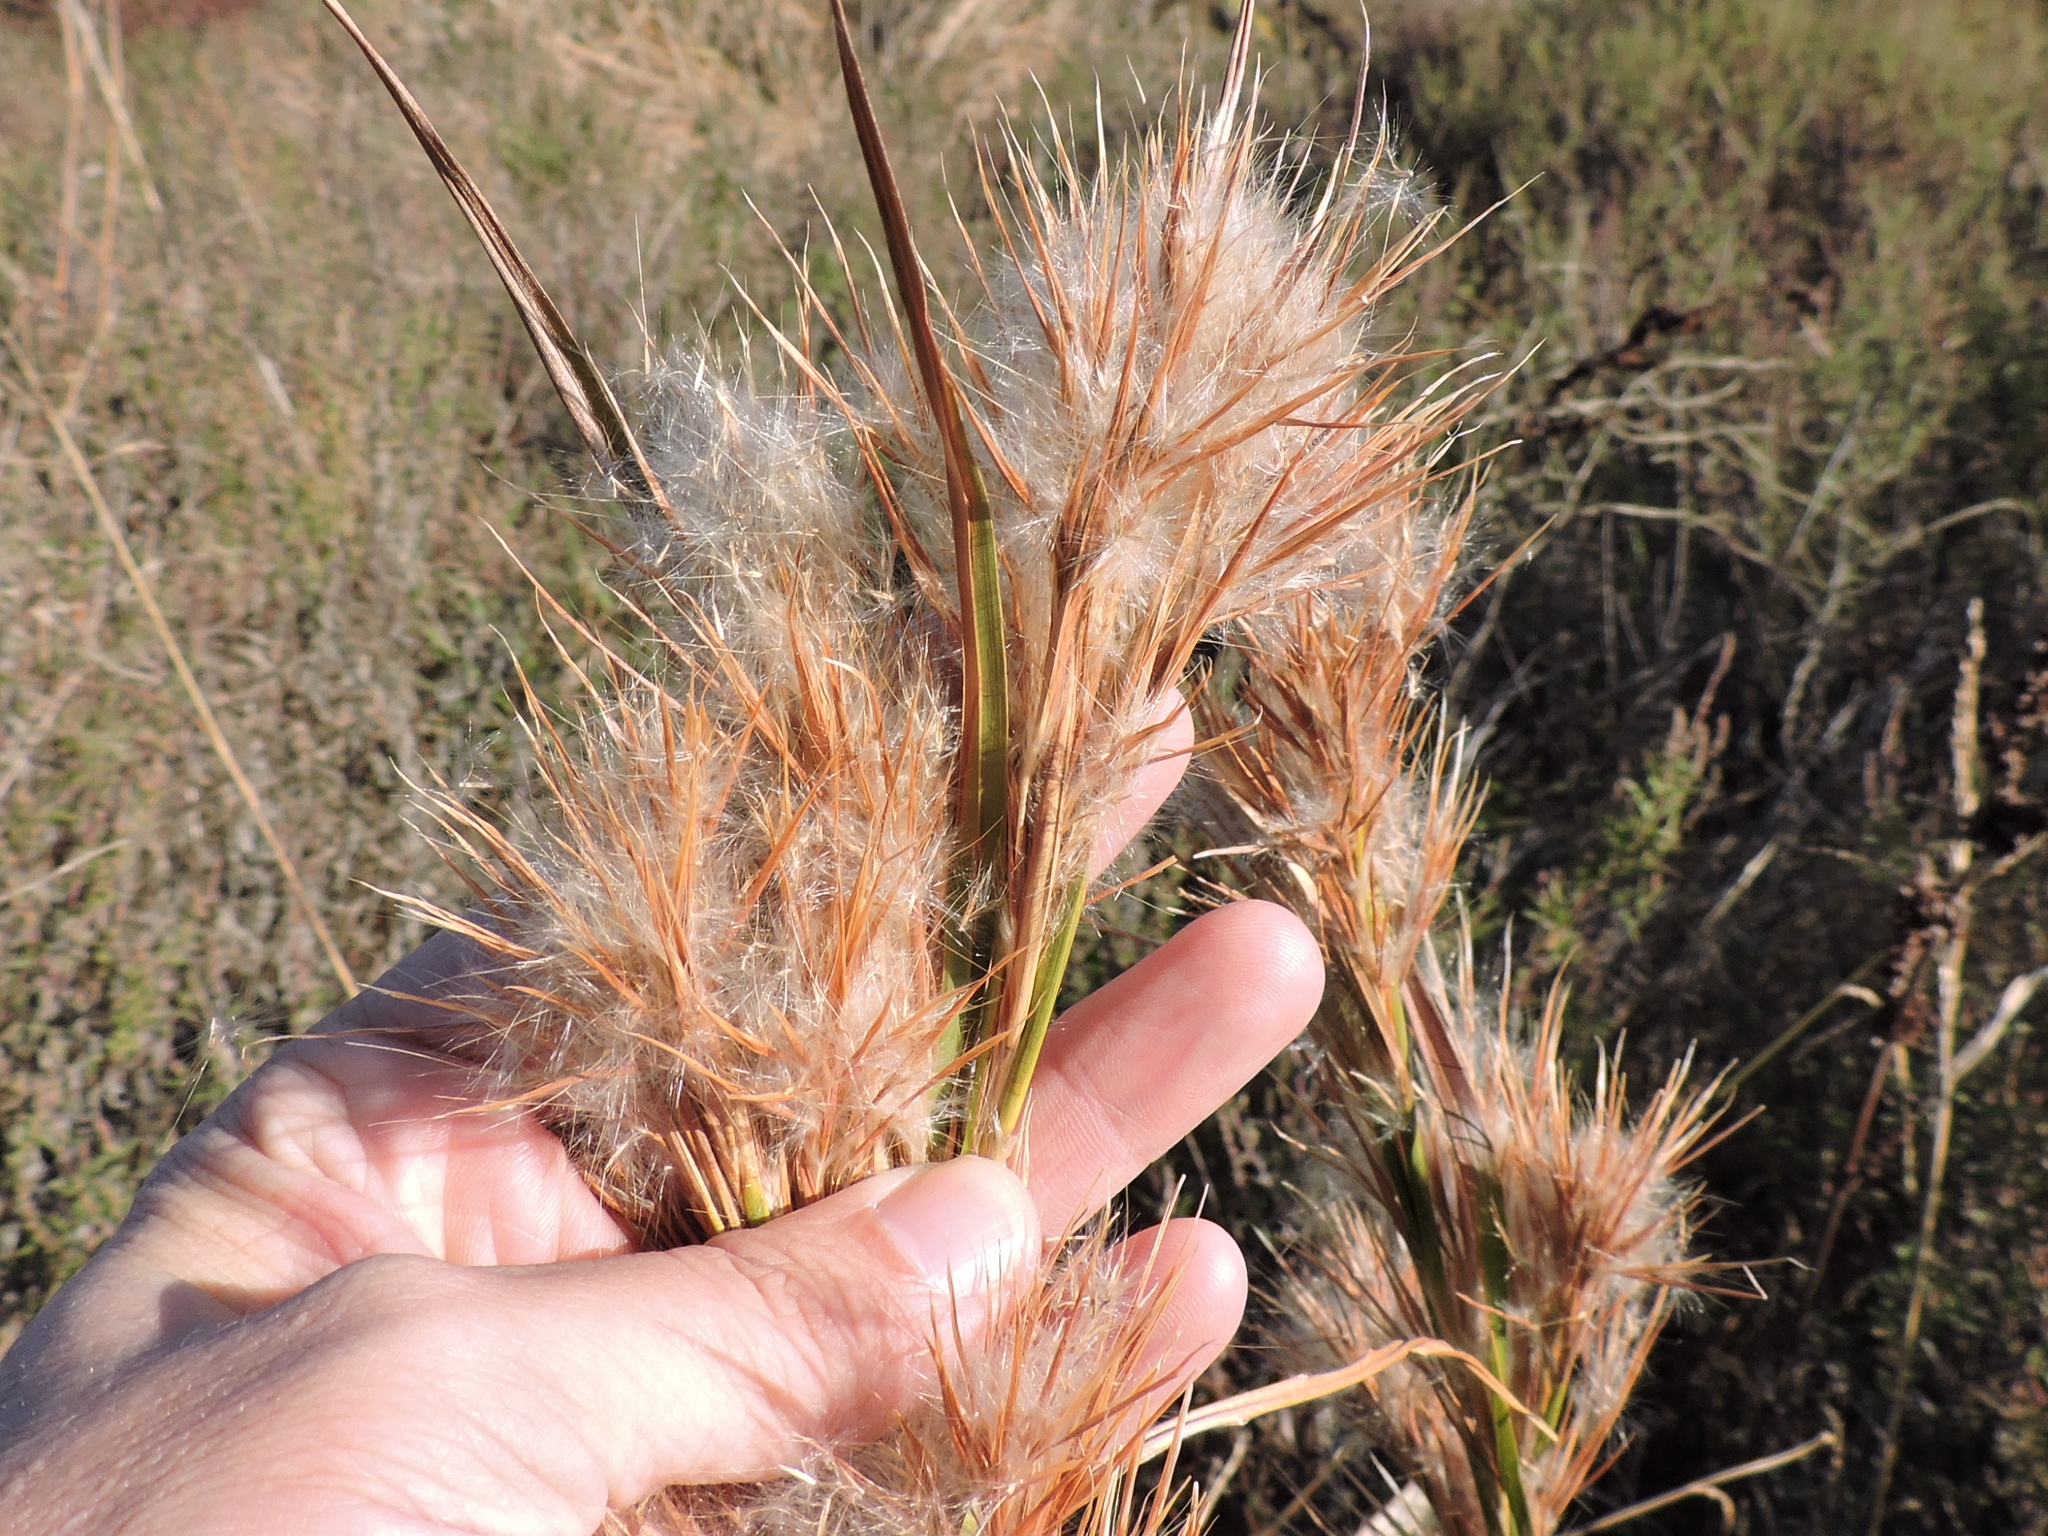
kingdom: Plantae
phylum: Tracheophyta
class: Liliopsida
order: Poales
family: Poaceae
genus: Andropogon
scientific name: Andropogon tenuispatheus
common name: Bushy bluestem
